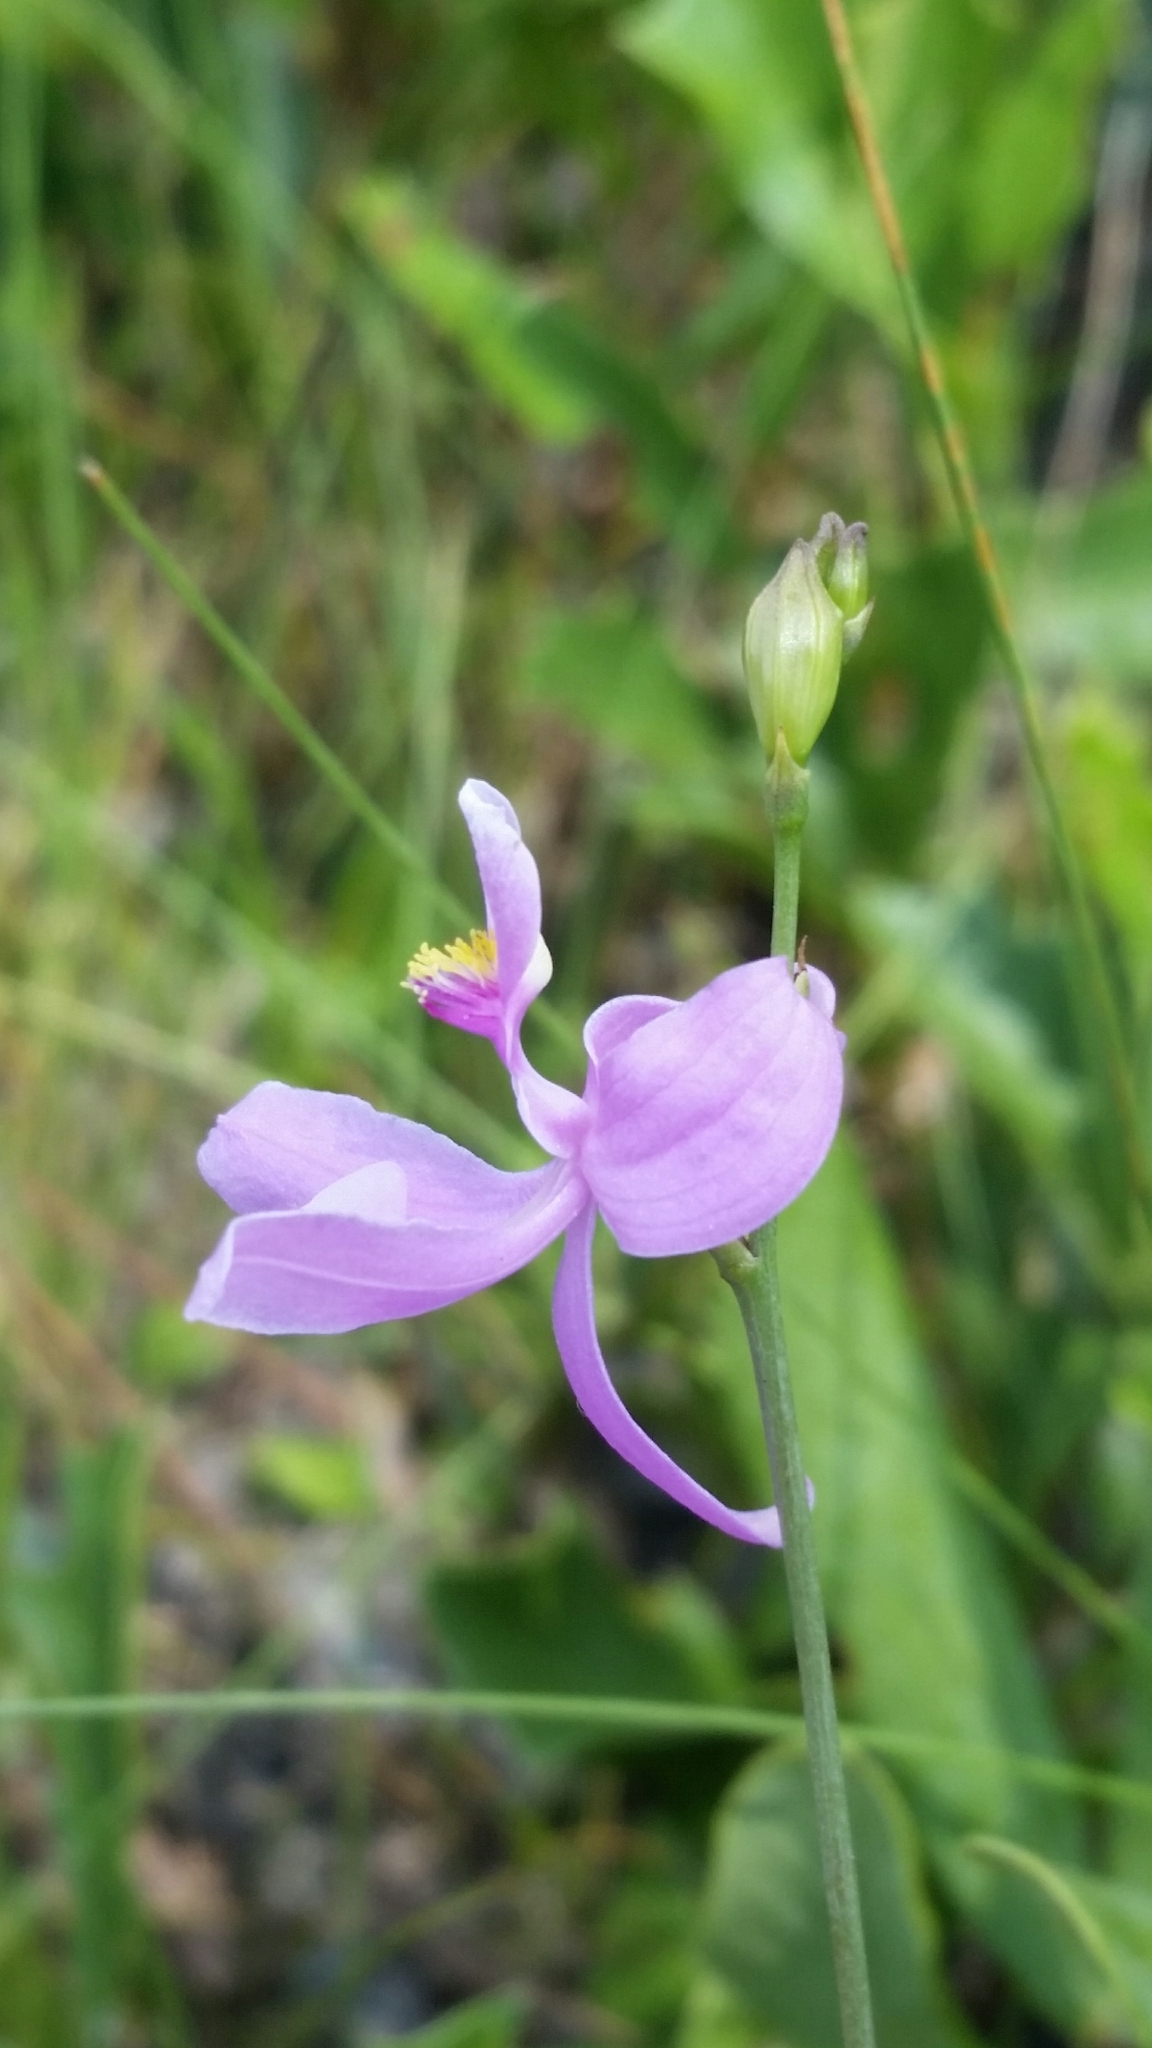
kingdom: Plantae
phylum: Tracheophyta
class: Liliopsida
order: Asparagales
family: Orchidaceae
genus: Calopogon
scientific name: Calopogon pallidus
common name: Pale grasspink
